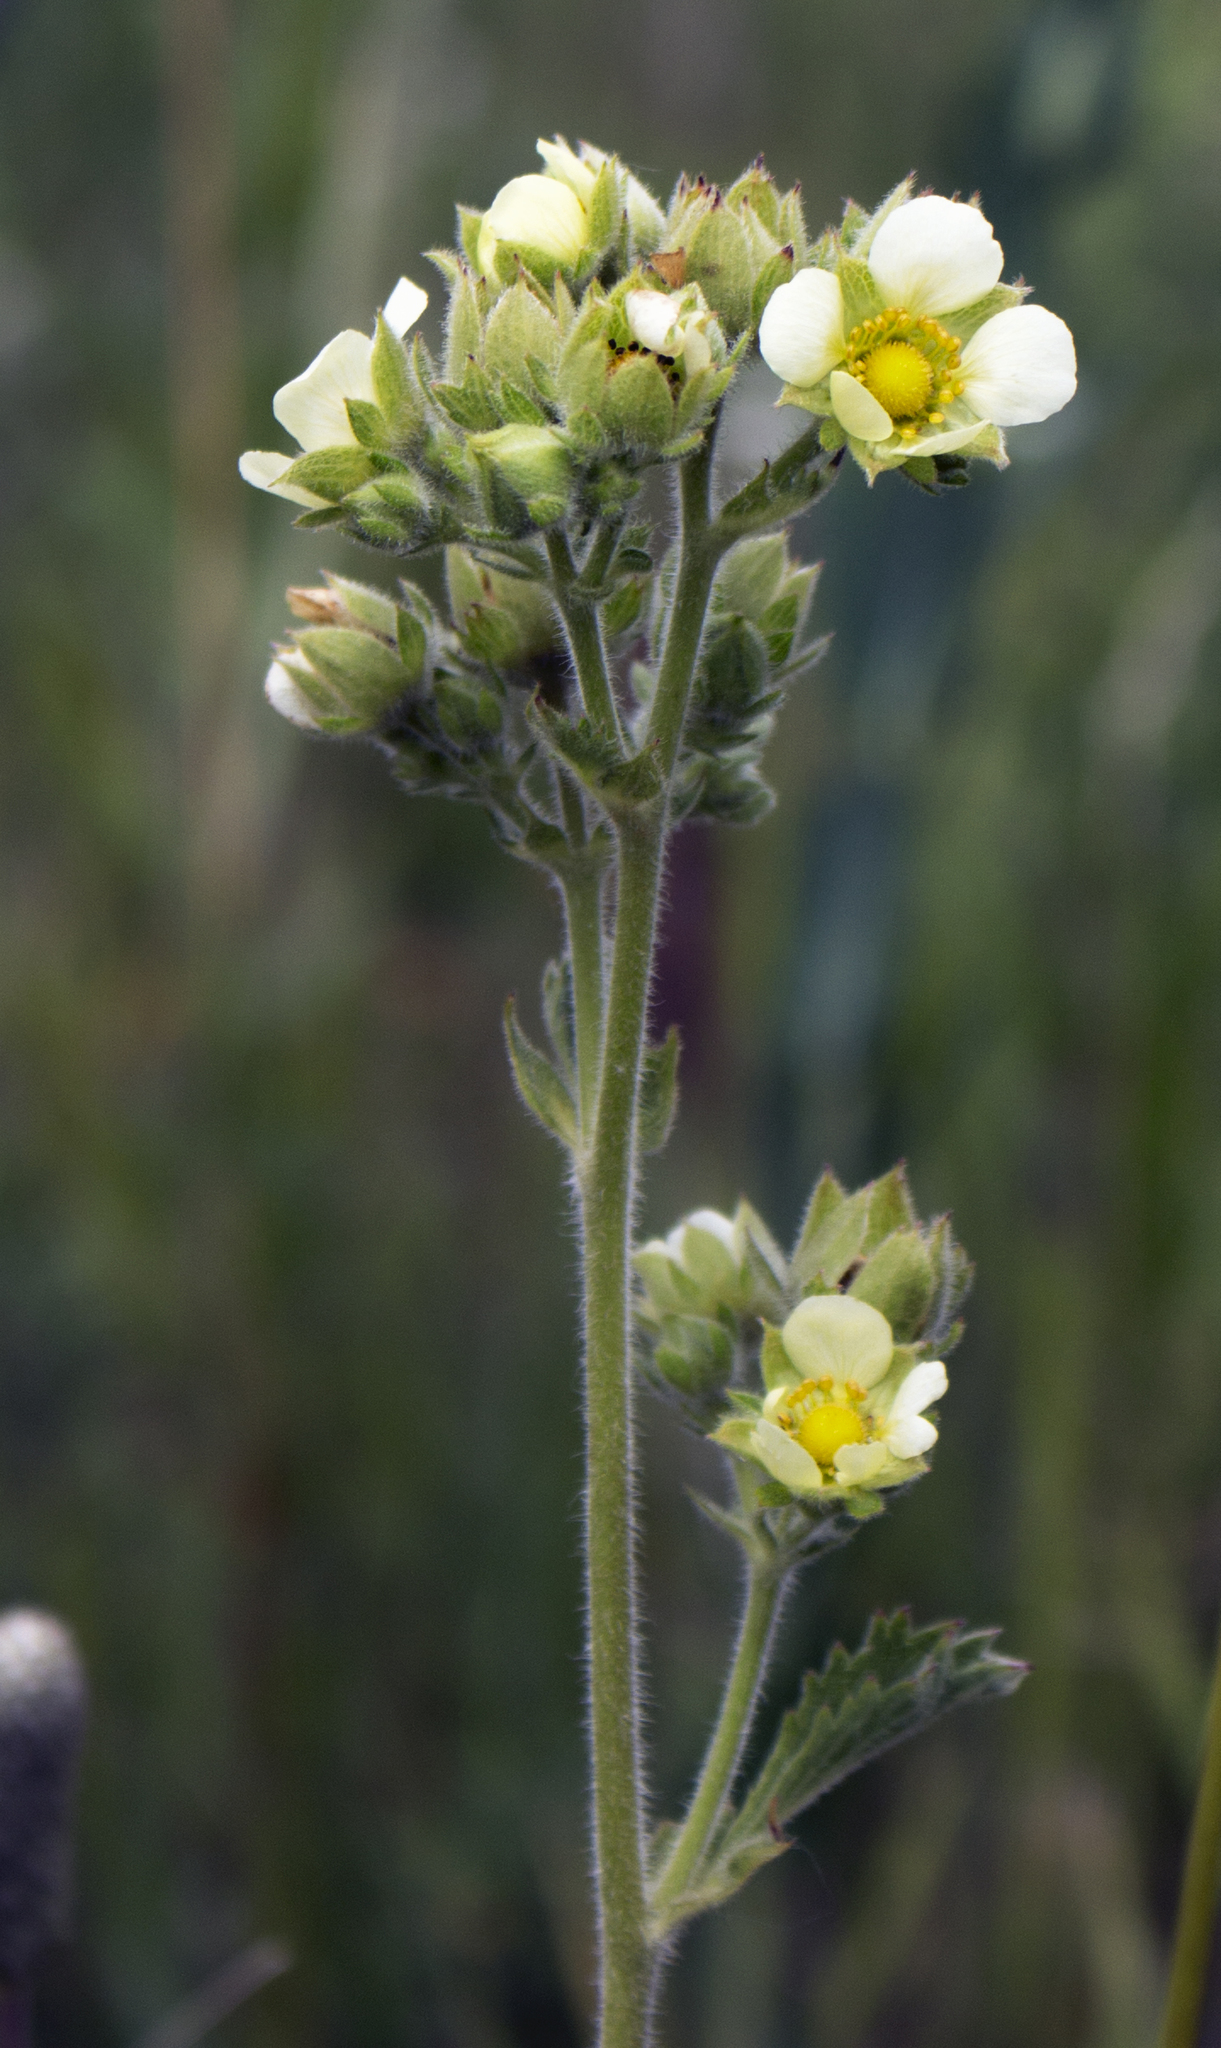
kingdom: Plantae
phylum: Tracheophyta
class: Magnoliopsida
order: Rosales
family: Rosaceae
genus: Drymocallis
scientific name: Drymocallis arguta
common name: Tall cinquefoil
